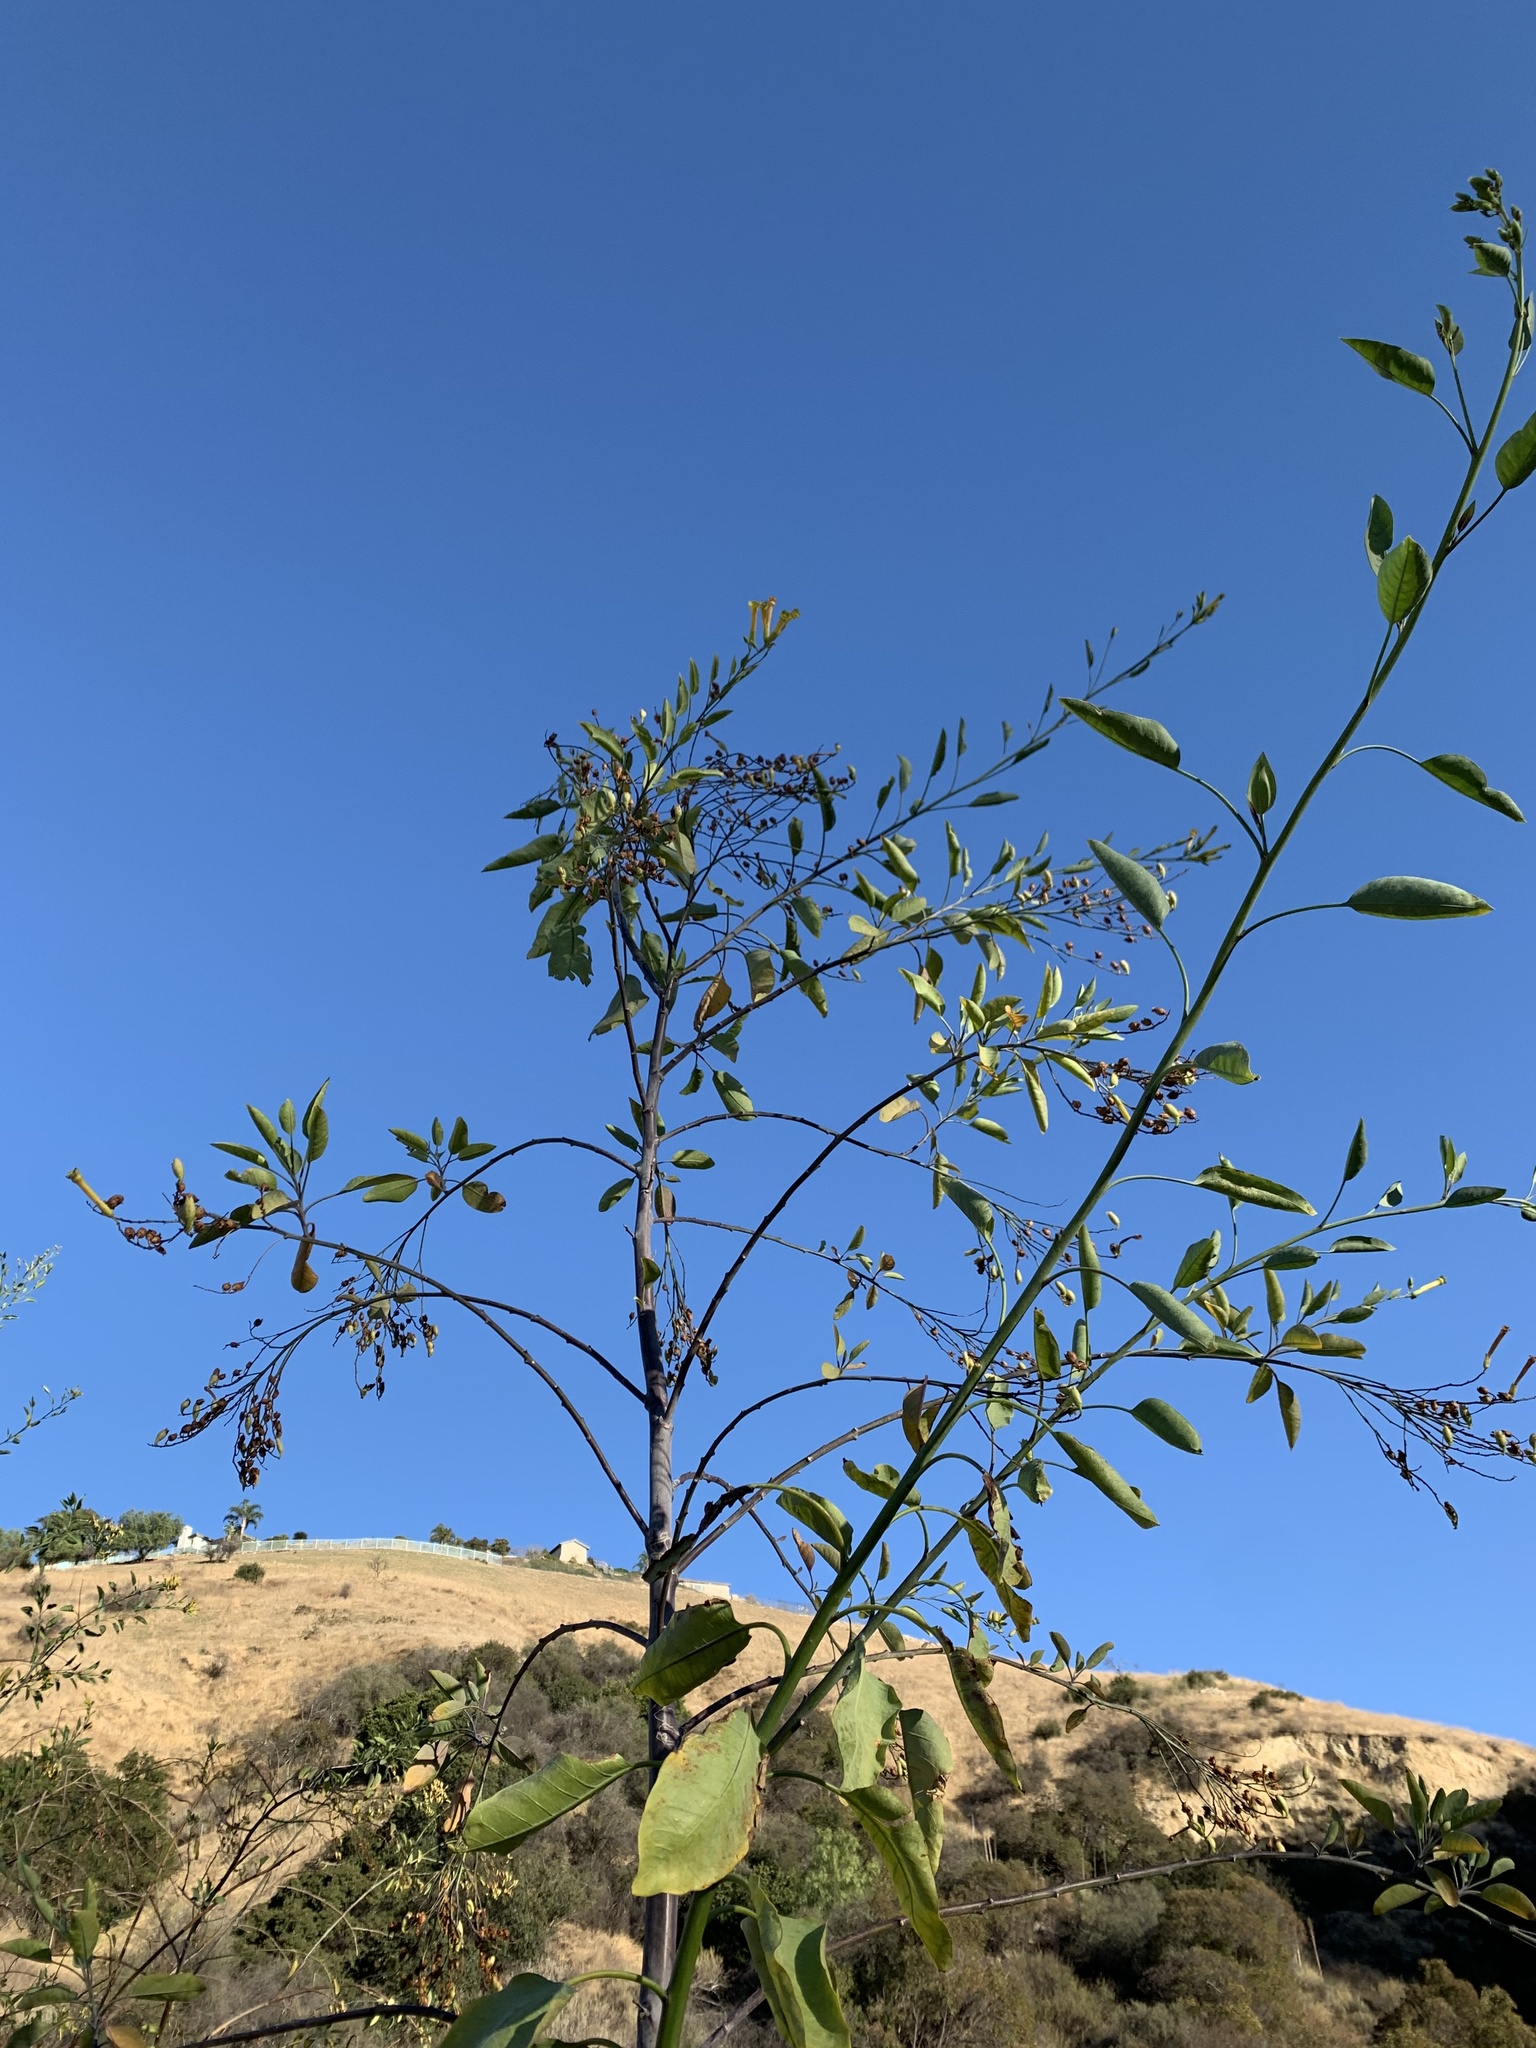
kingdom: Plantae
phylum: Tracheophyta
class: Magnoliopsida
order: Solanales
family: Solanaceae
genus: Nicotiana
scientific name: Nicotiana glauca
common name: Tree tobacco
